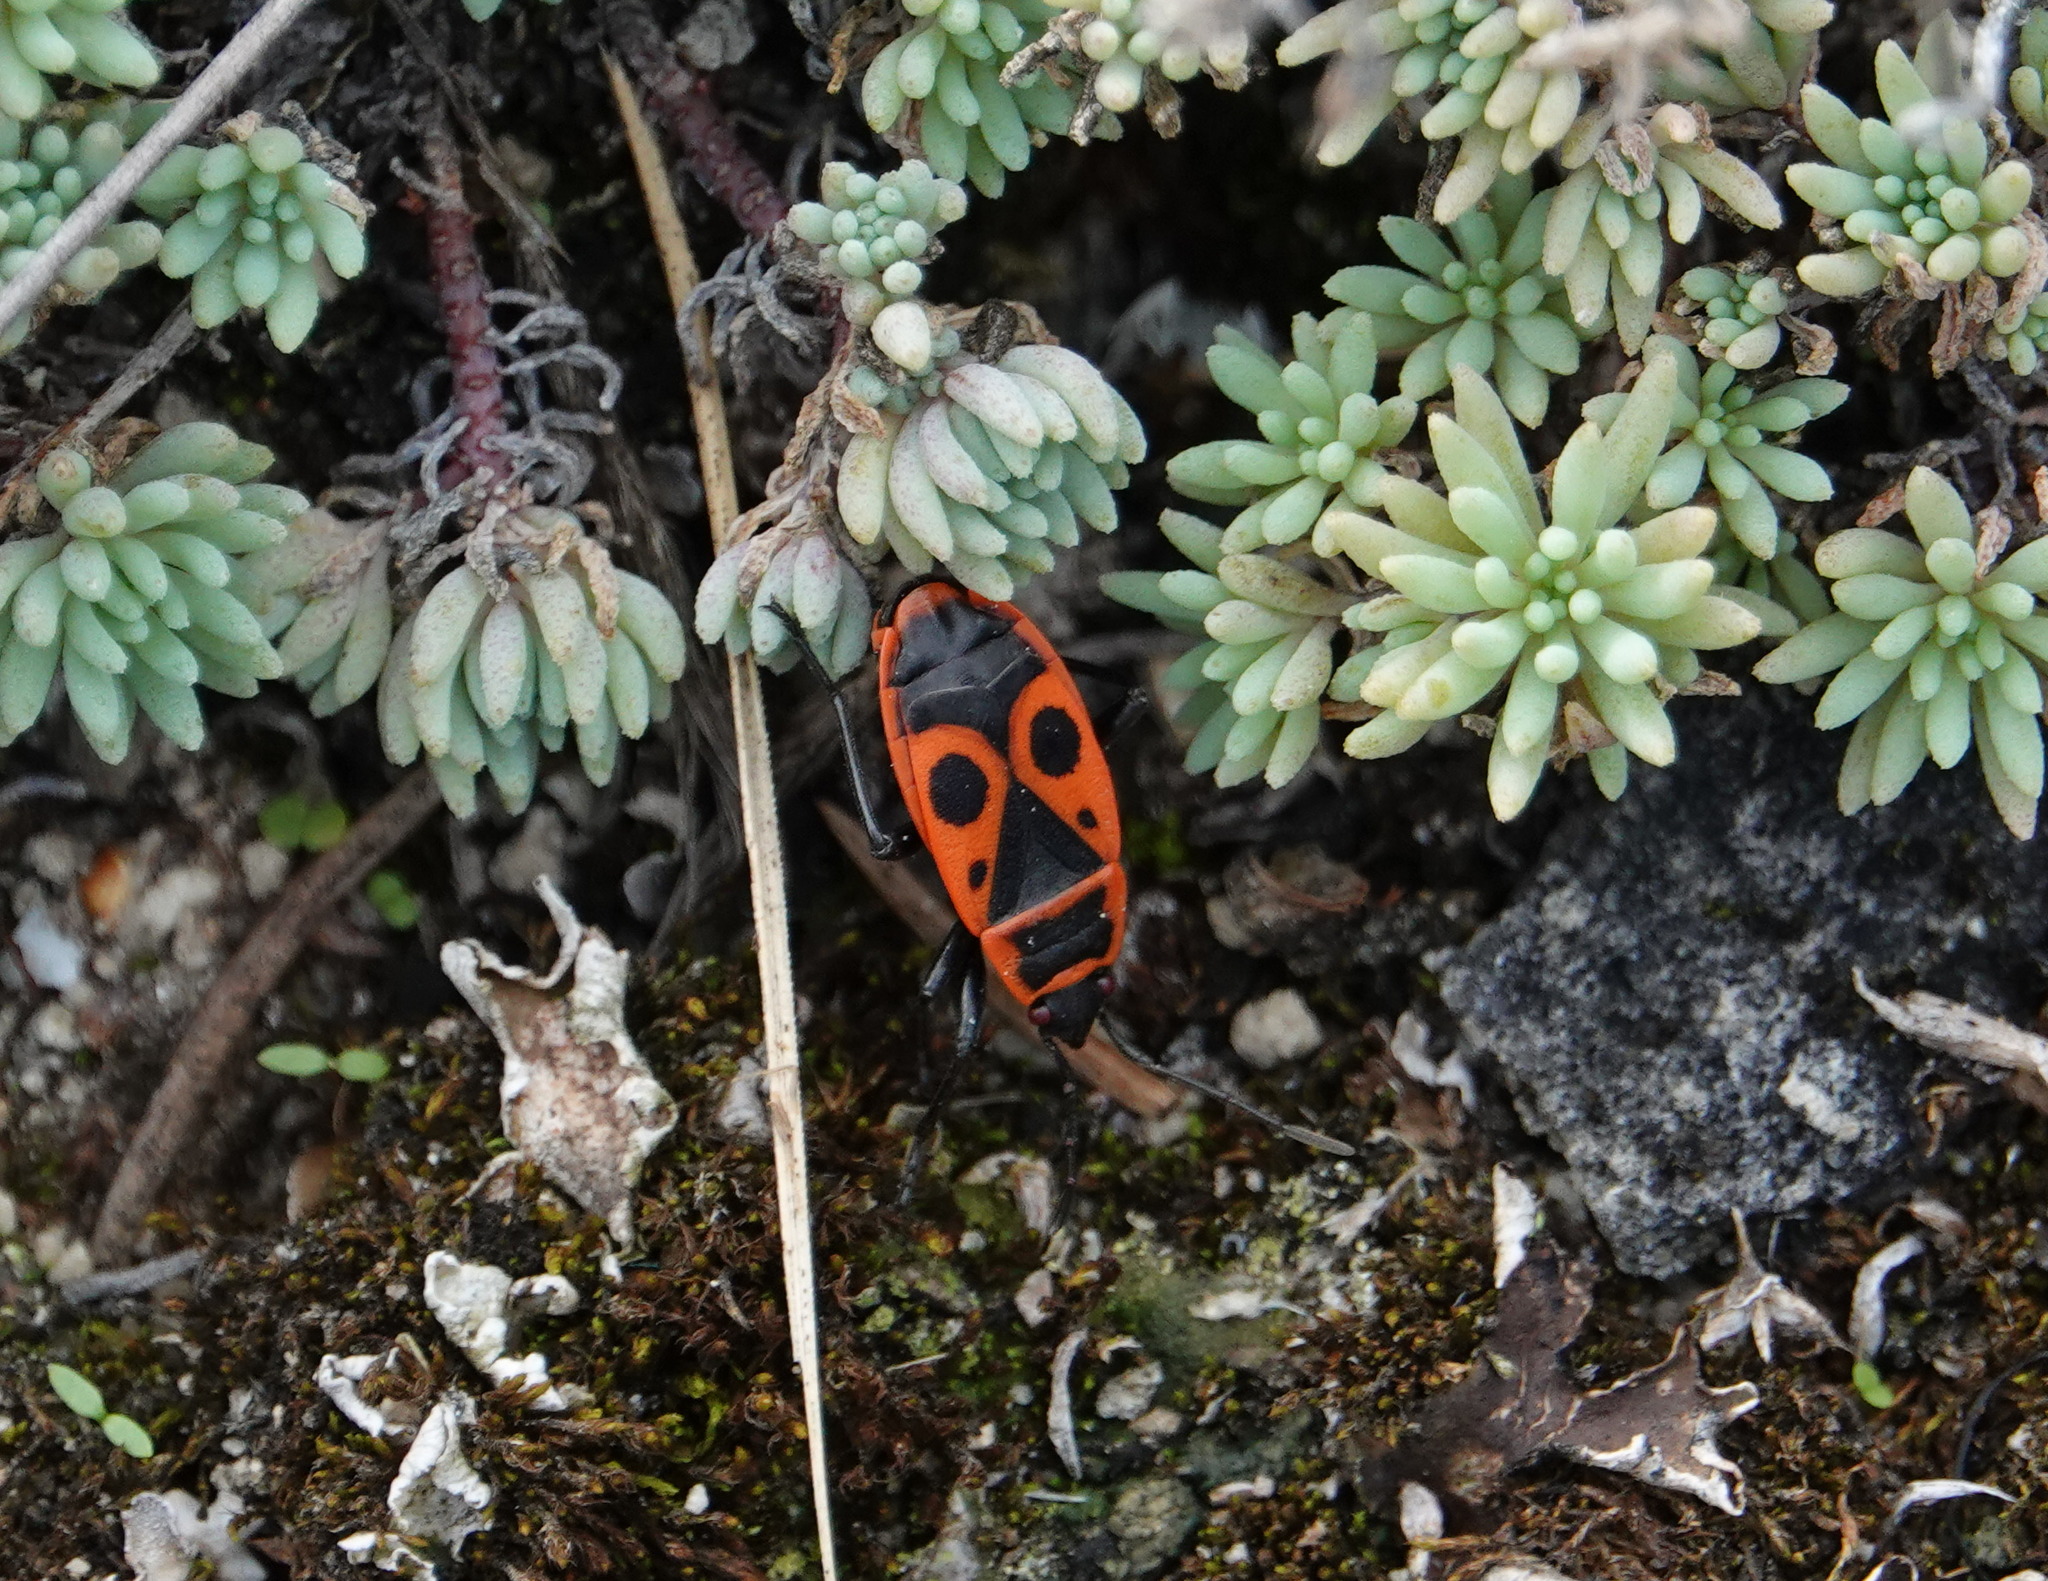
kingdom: Animalia
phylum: Arthropoda
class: Insecta
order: Hemiptera
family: Pyrrhocoridae
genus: Pyrrhocoris
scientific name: Pyrrhocoris apterus
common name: Firebug
